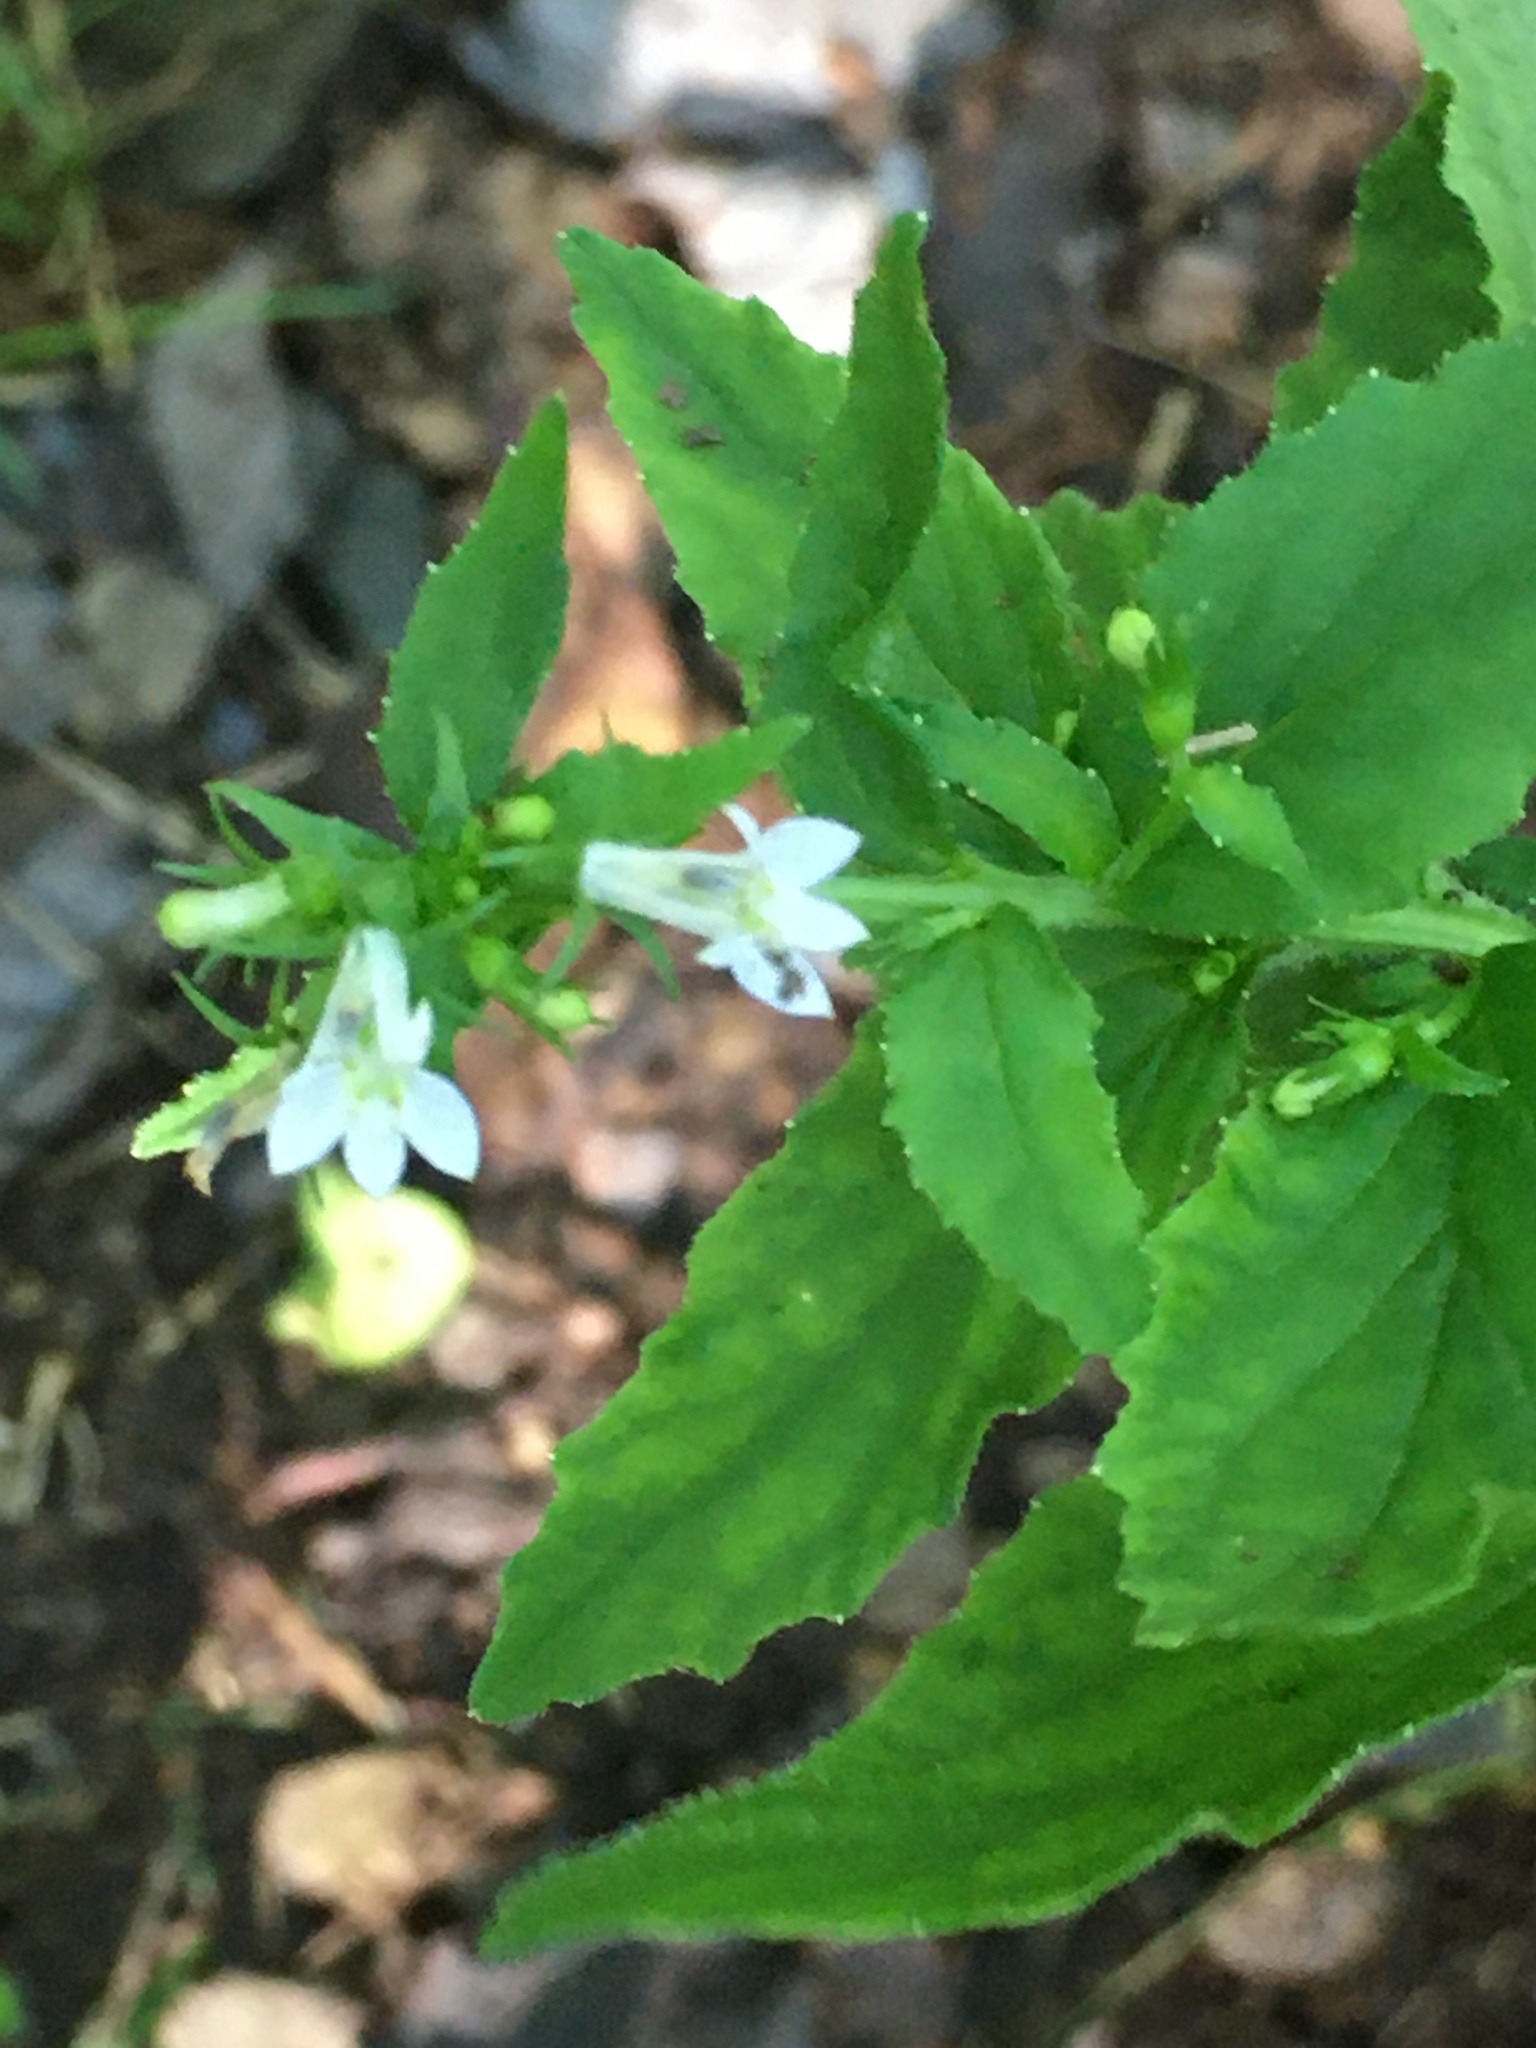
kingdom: Plantae
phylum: Tracheophyta
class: Magnoliopsida
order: Asterales
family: Campanulaceae
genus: Lobelia
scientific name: Lobelia inflata
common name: Indian tobacco
